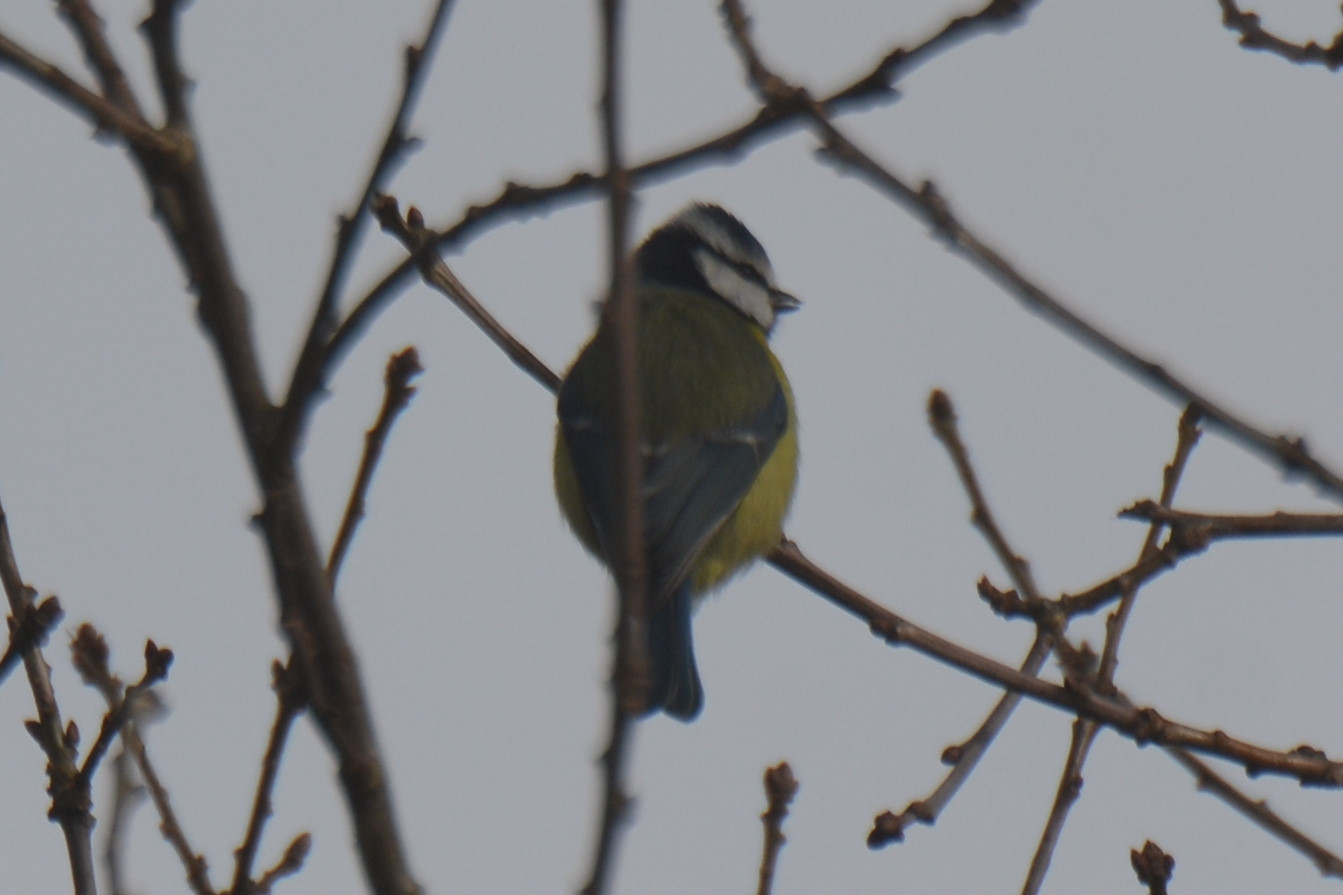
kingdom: Animalia
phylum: Chordata
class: Aves
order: Passeriformes
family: Paridae
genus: Cyanistes
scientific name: Cyanistes caeruleus
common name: Eurasian blue tit
